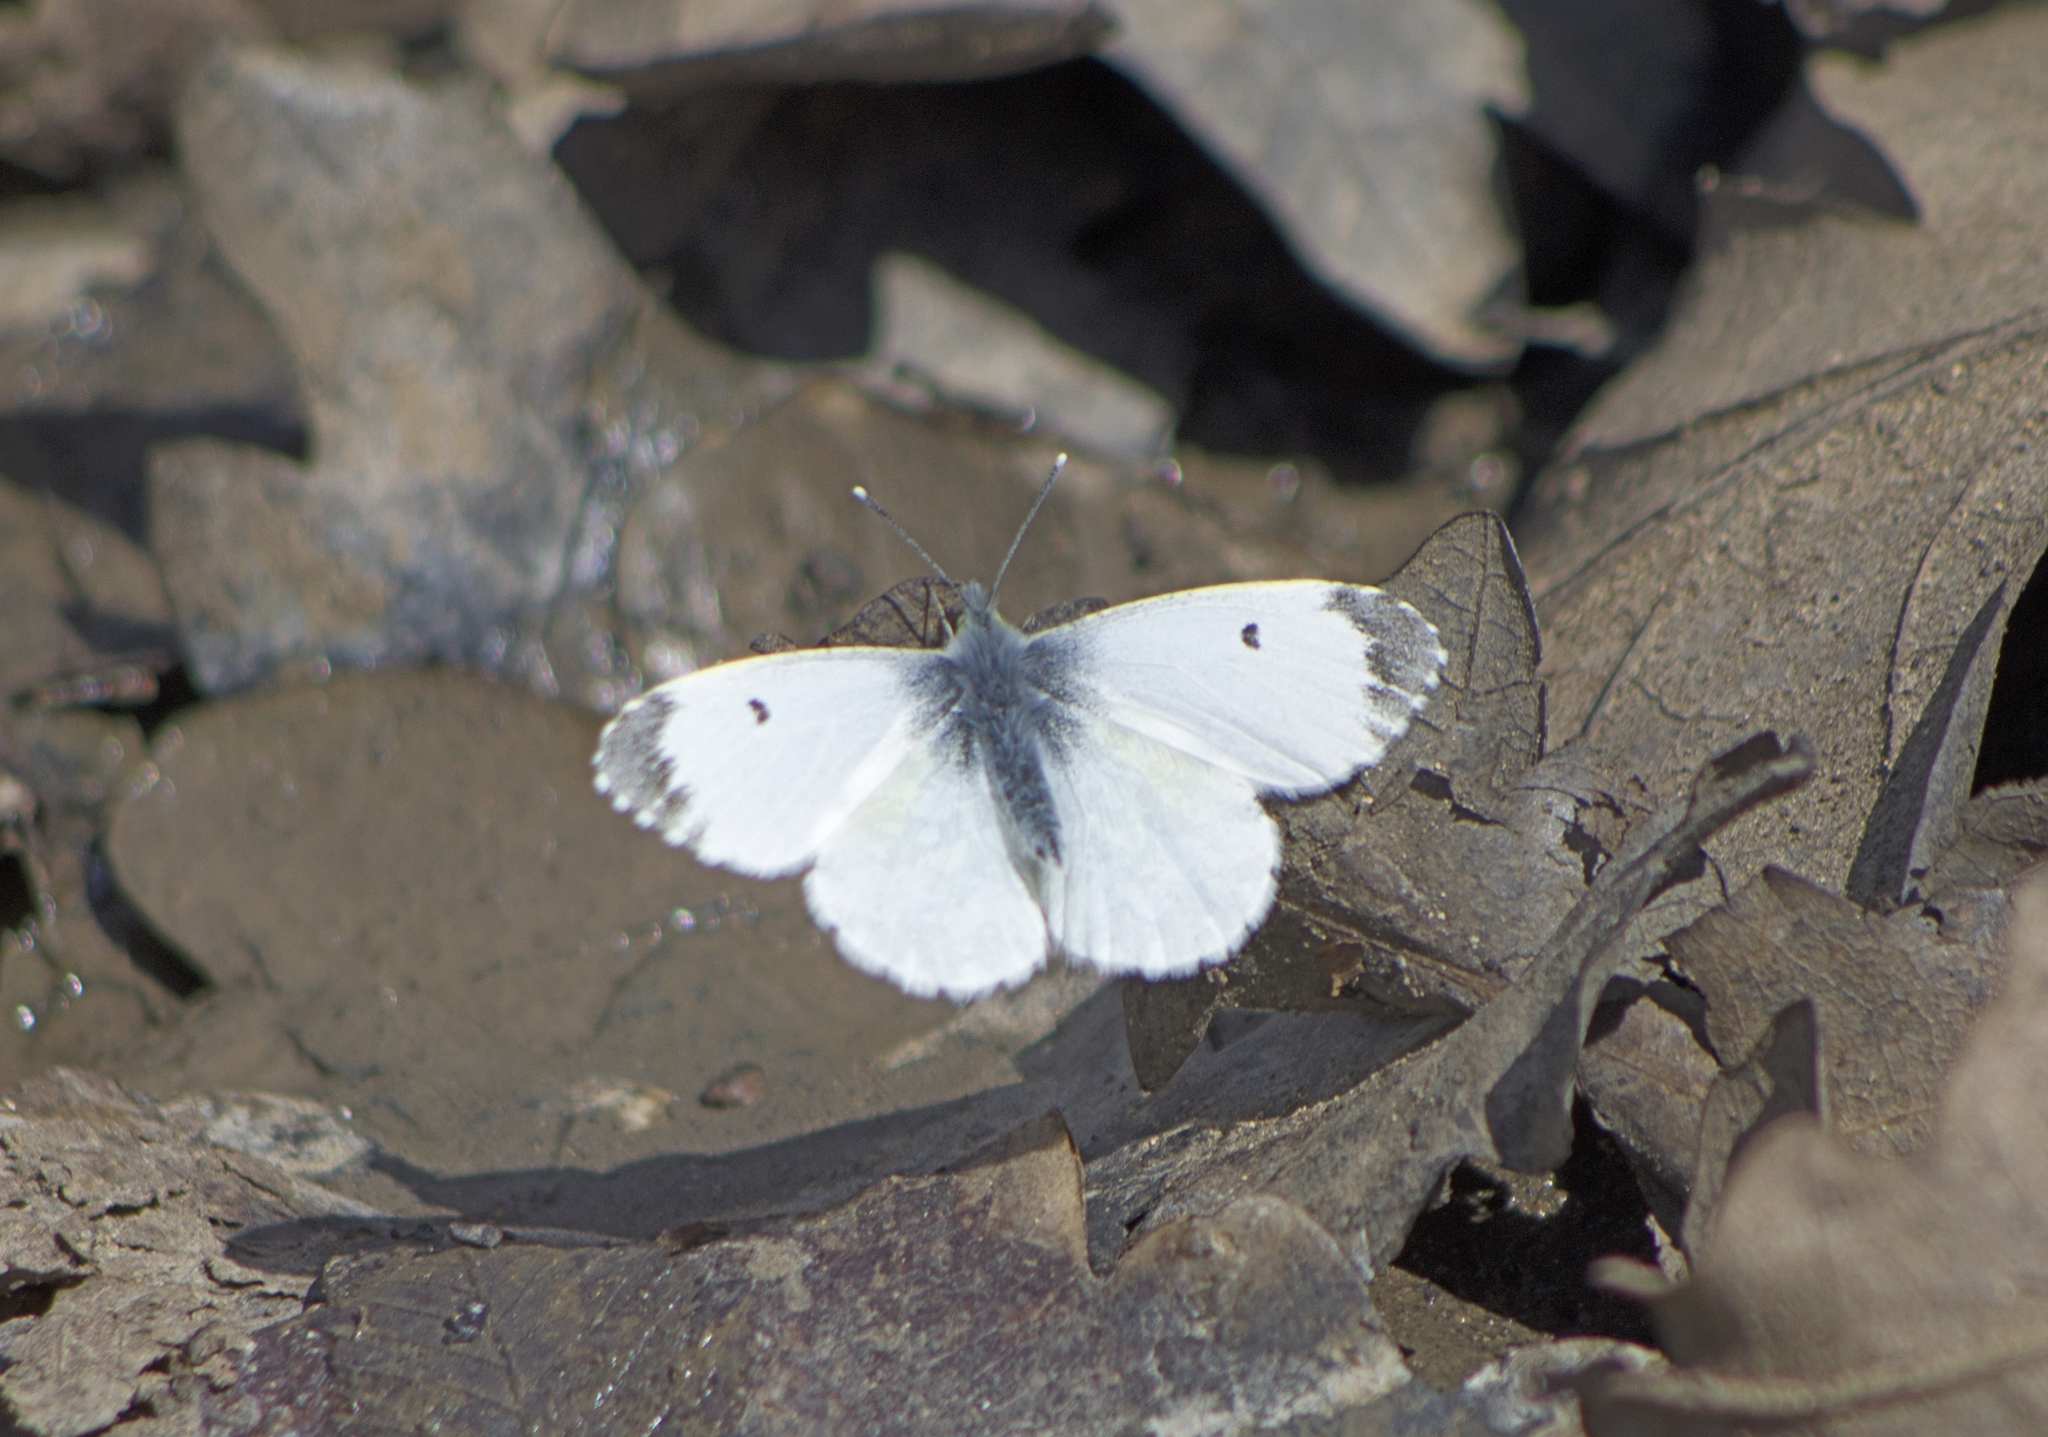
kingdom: Animalia
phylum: Arthropoda
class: Insecta
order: Lepidoptera
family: Pieridae
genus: Anthocharis
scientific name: Anthocharis cardamines
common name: Orange-tip
